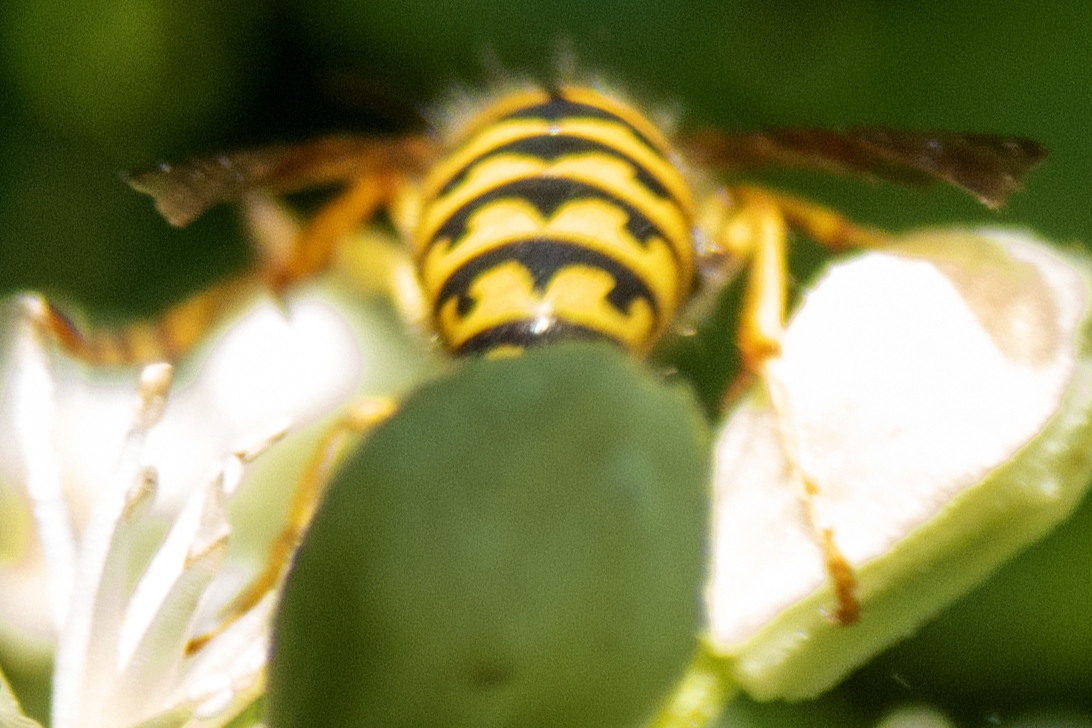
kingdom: Animalia
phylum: Arthropoda
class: Insecta
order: Hymenoptera
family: Vespidae
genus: Dolichovespula
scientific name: Dolichovespula arenaria
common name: Aerial yellowjacket
